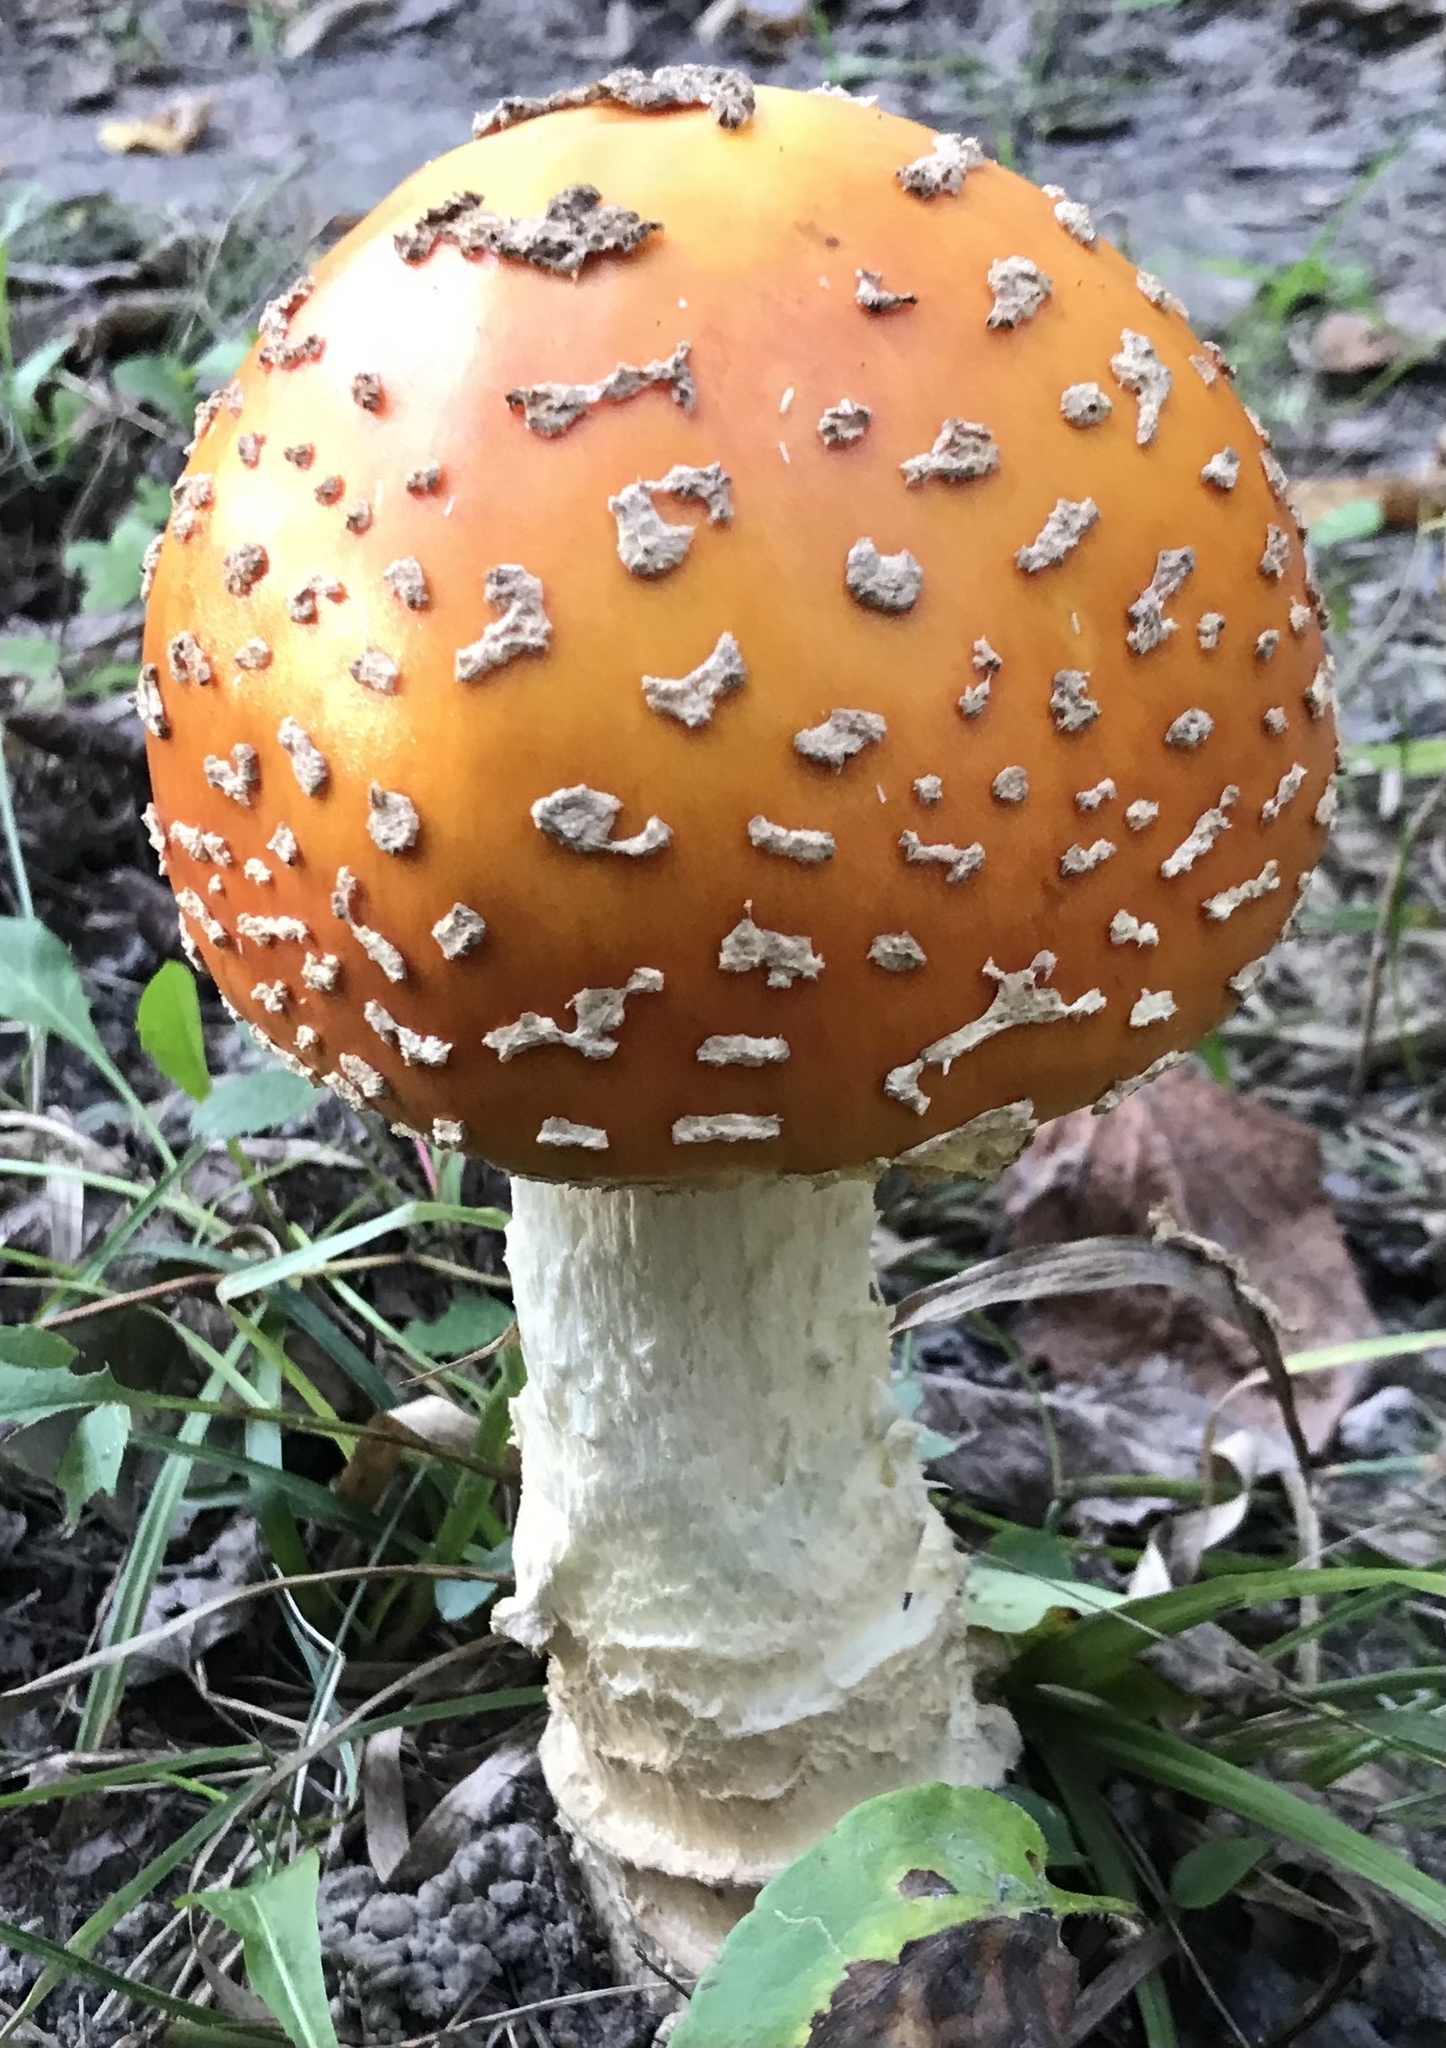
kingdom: Fungi
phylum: Basidiomycota
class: Agaricomycetes
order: Agaricales
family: Amanitaceae
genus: Amanita
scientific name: Amanita muscaria
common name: Fly agaric
